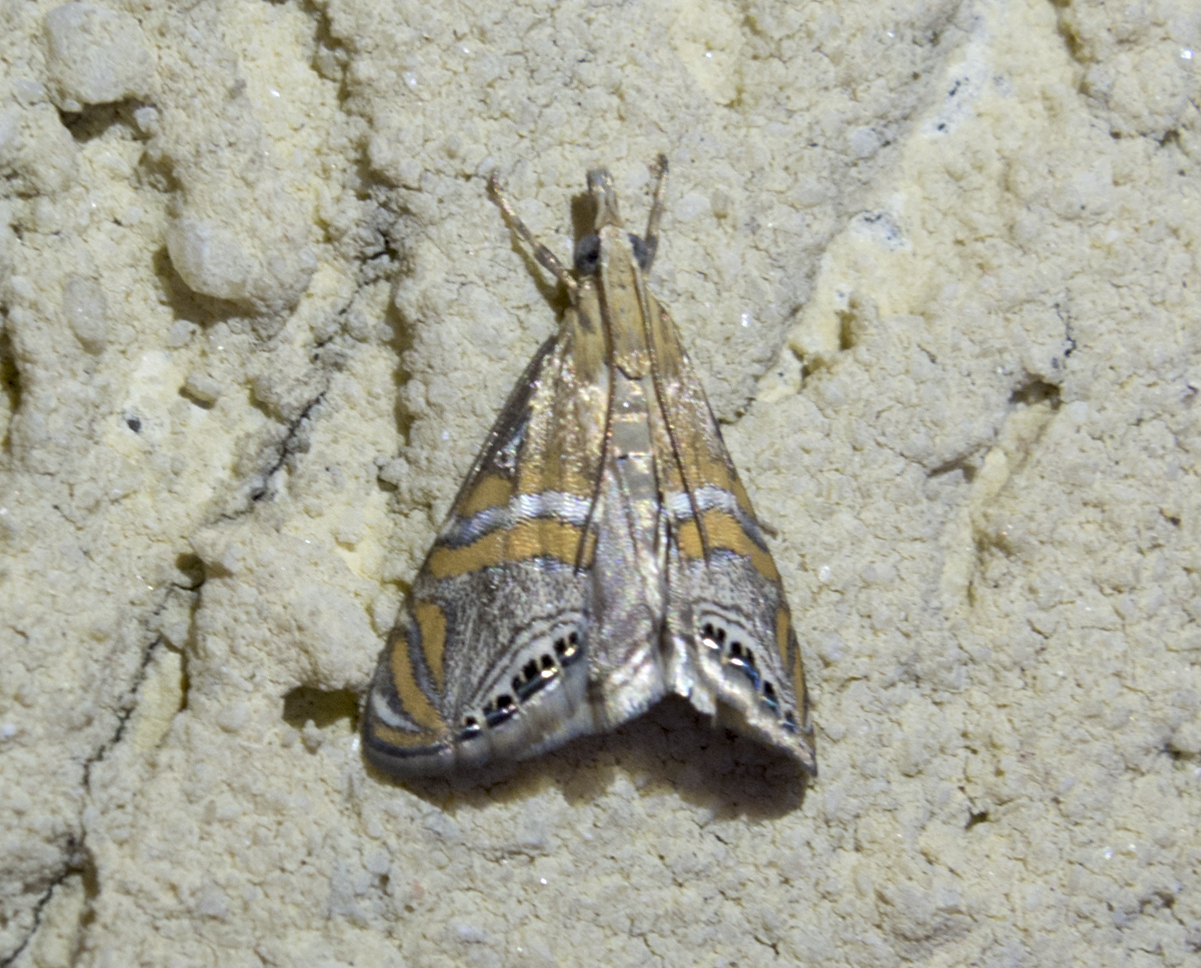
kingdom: Animalia
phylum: Arthropoda
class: Insecta
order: Lepidoptera
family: Crambidae
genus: Euchromius
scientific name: Euchromius bella
